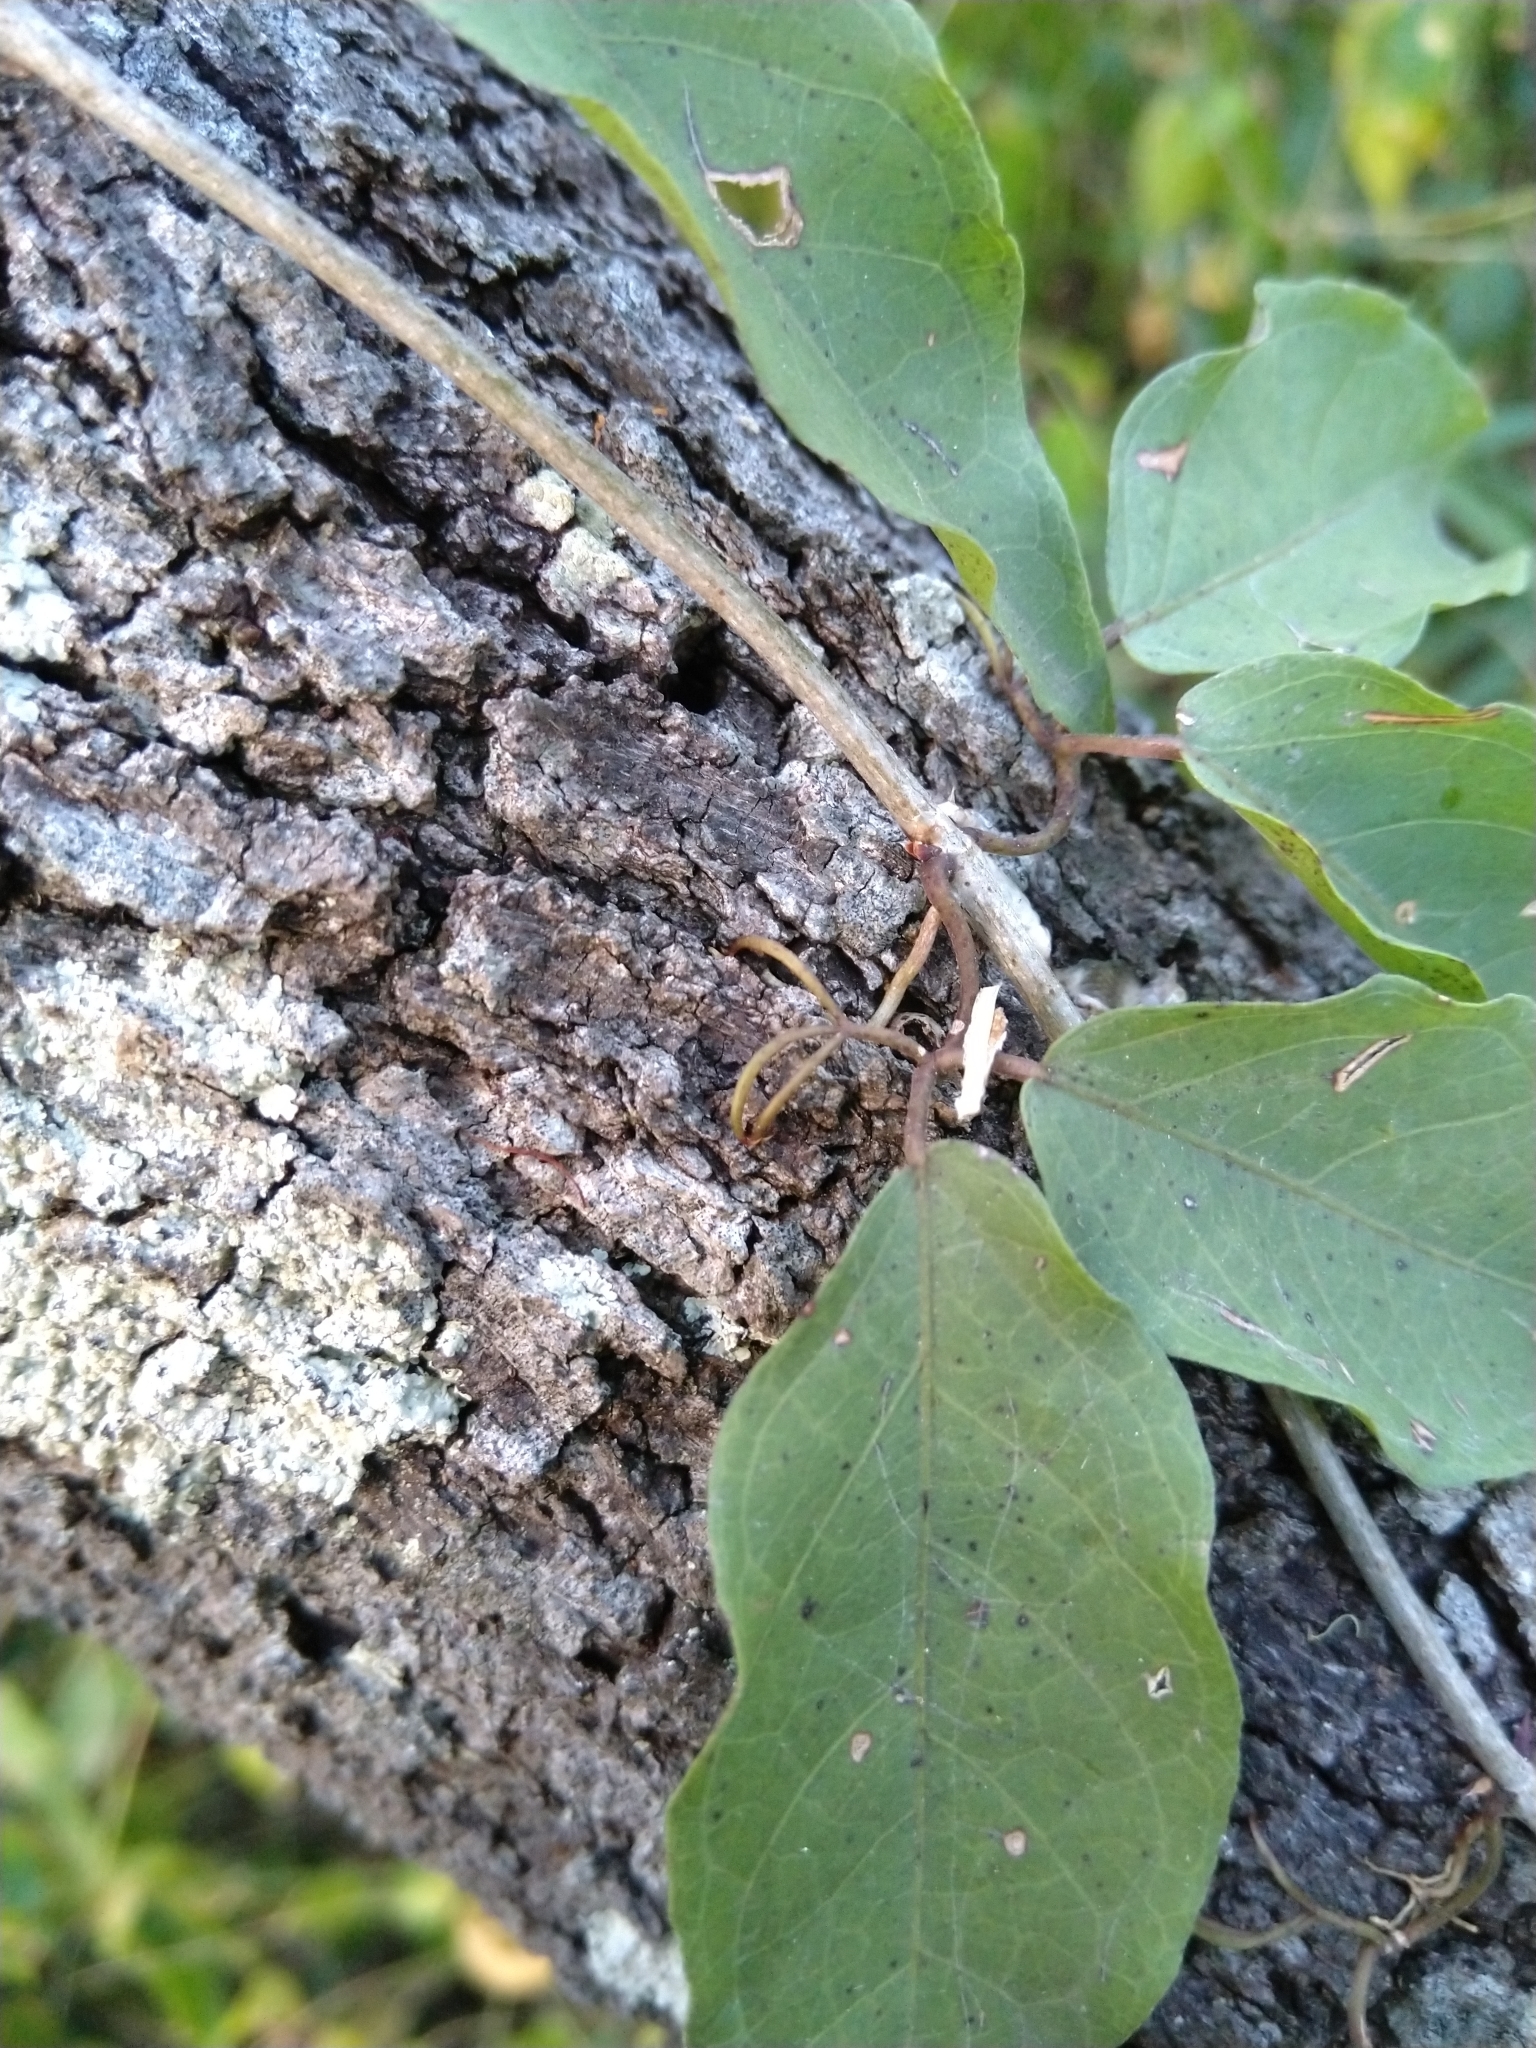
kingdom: Plantae
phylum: Tracheophyta
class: Magnoliopsida
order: Lamiales
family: Bignoniaceae
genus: Dolichandra
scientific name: Dolichandra unguis-cati
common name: Catclaw vine
